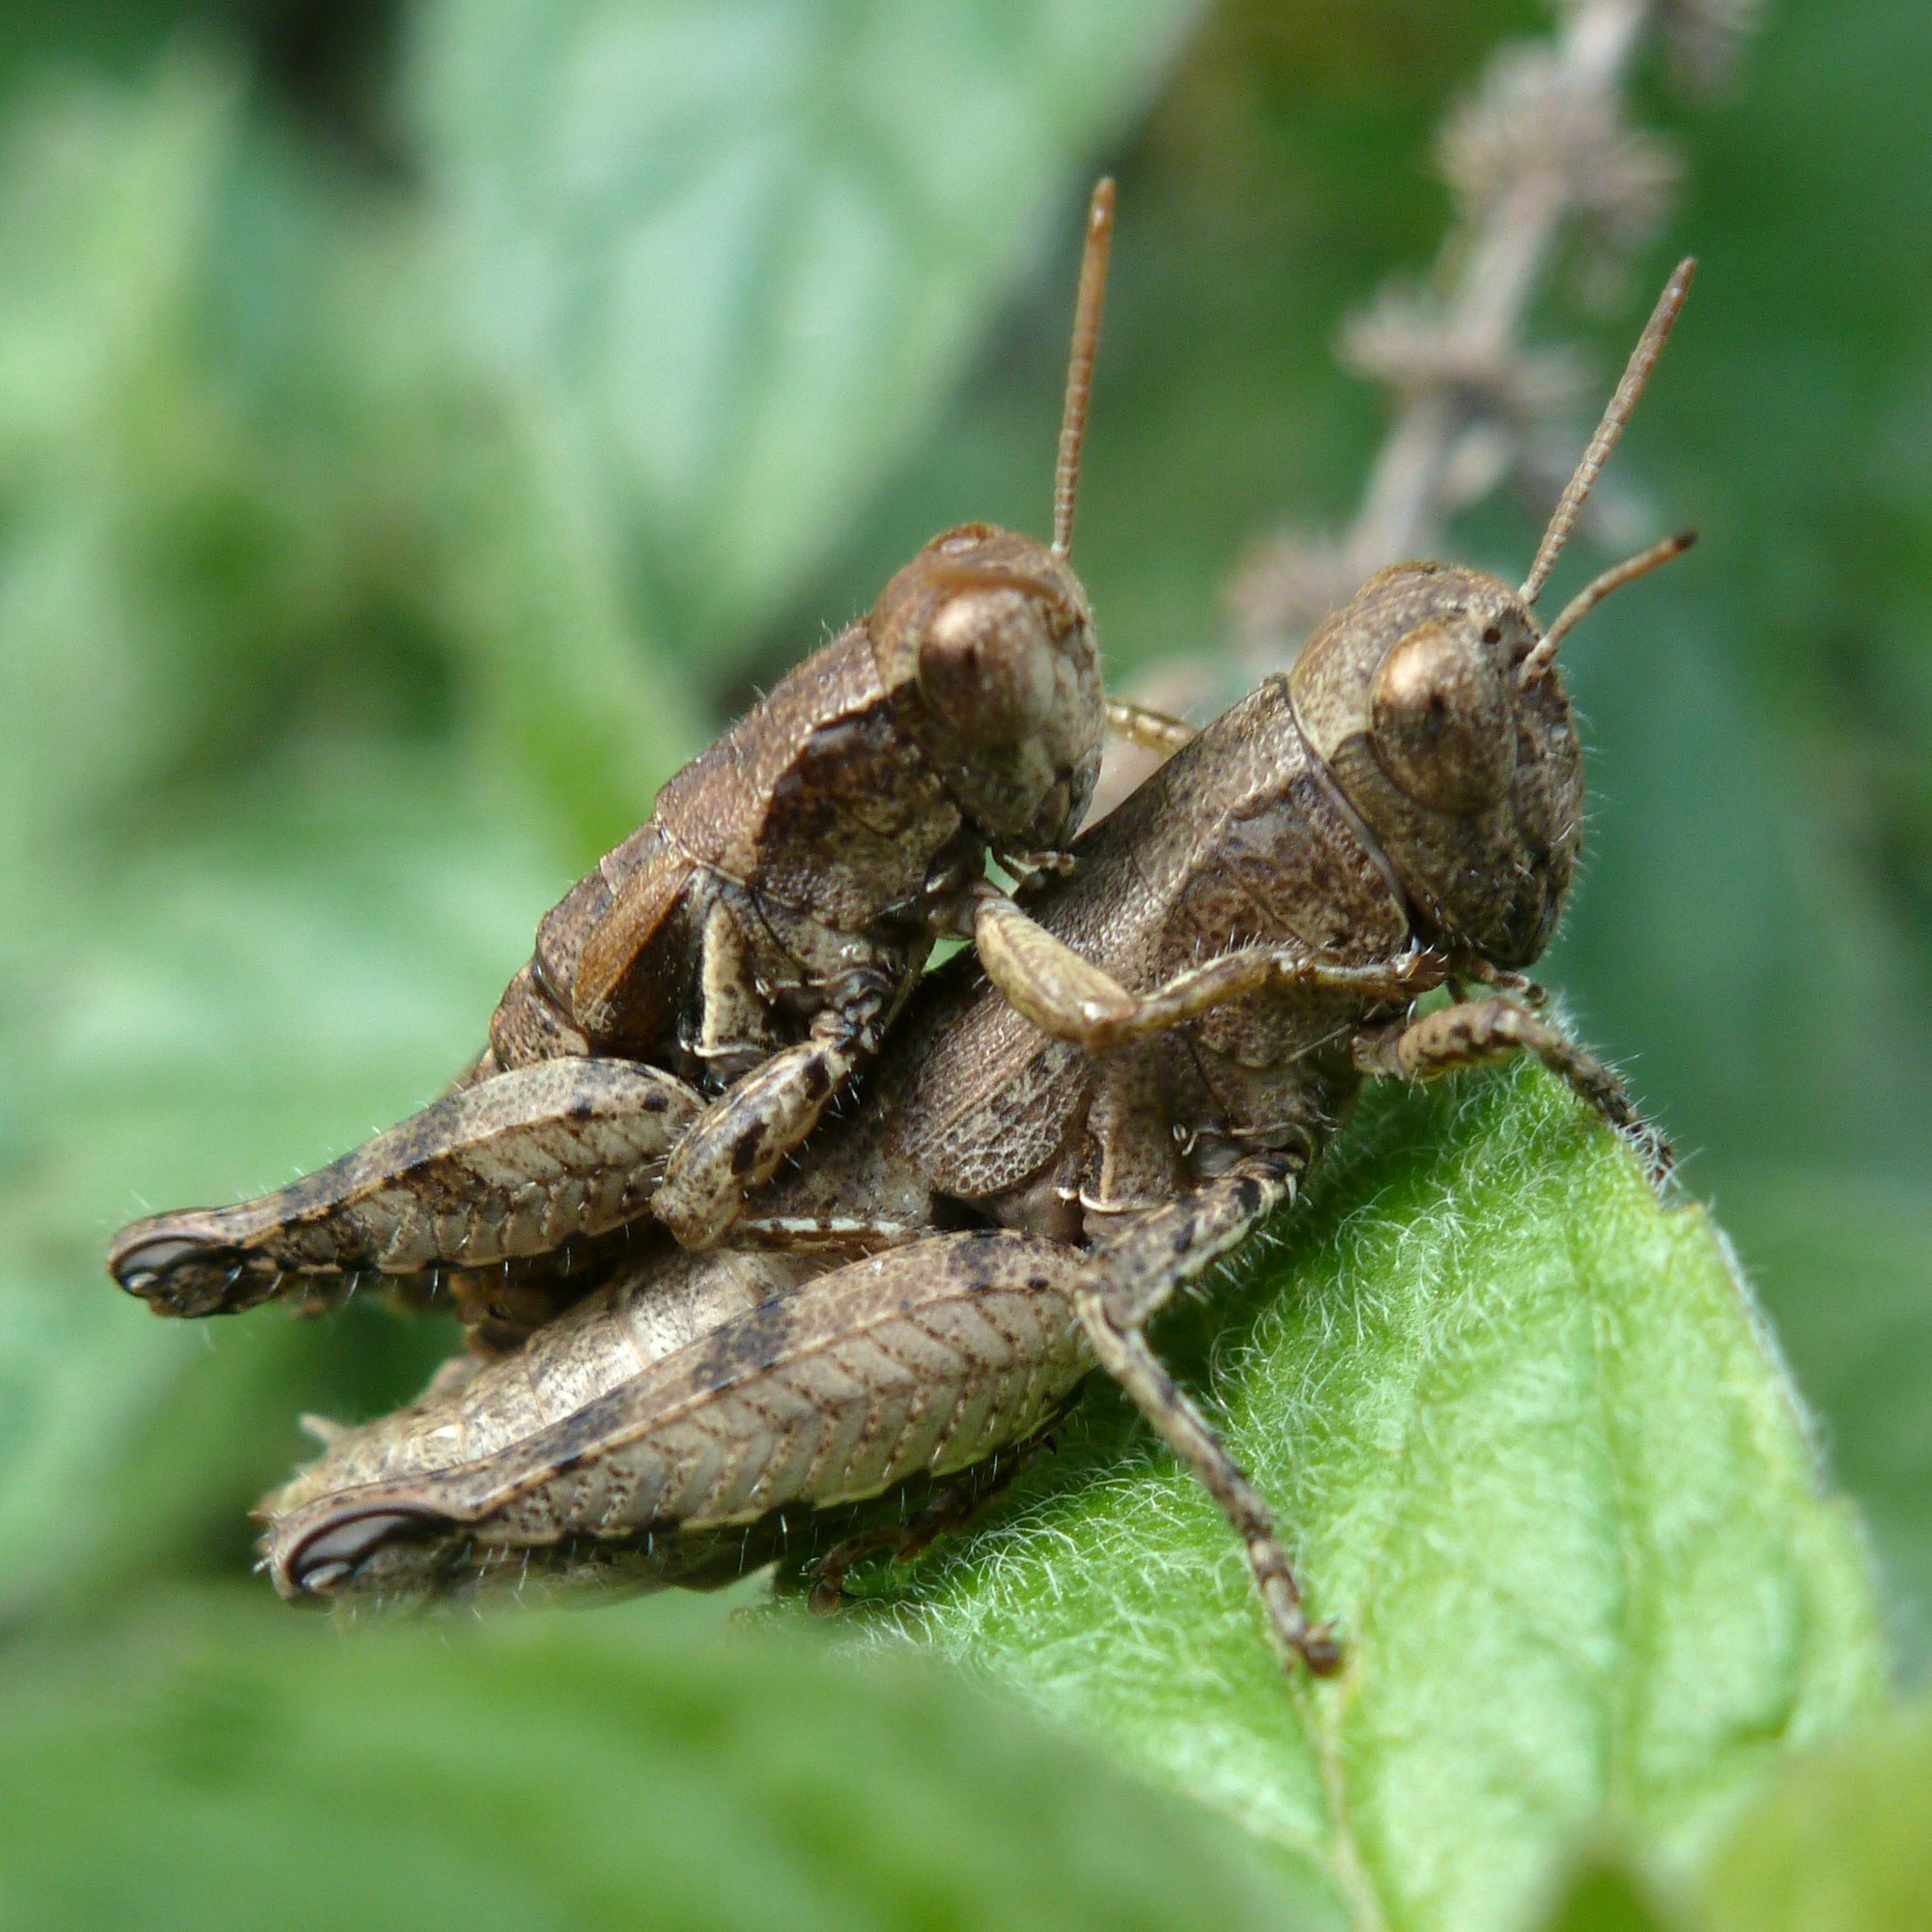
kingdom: Animalia
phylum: Arthropoda
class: Insecta
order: Orthoptera
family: Acrididae
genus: Pezotettix
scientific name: Pezotettix giornae
